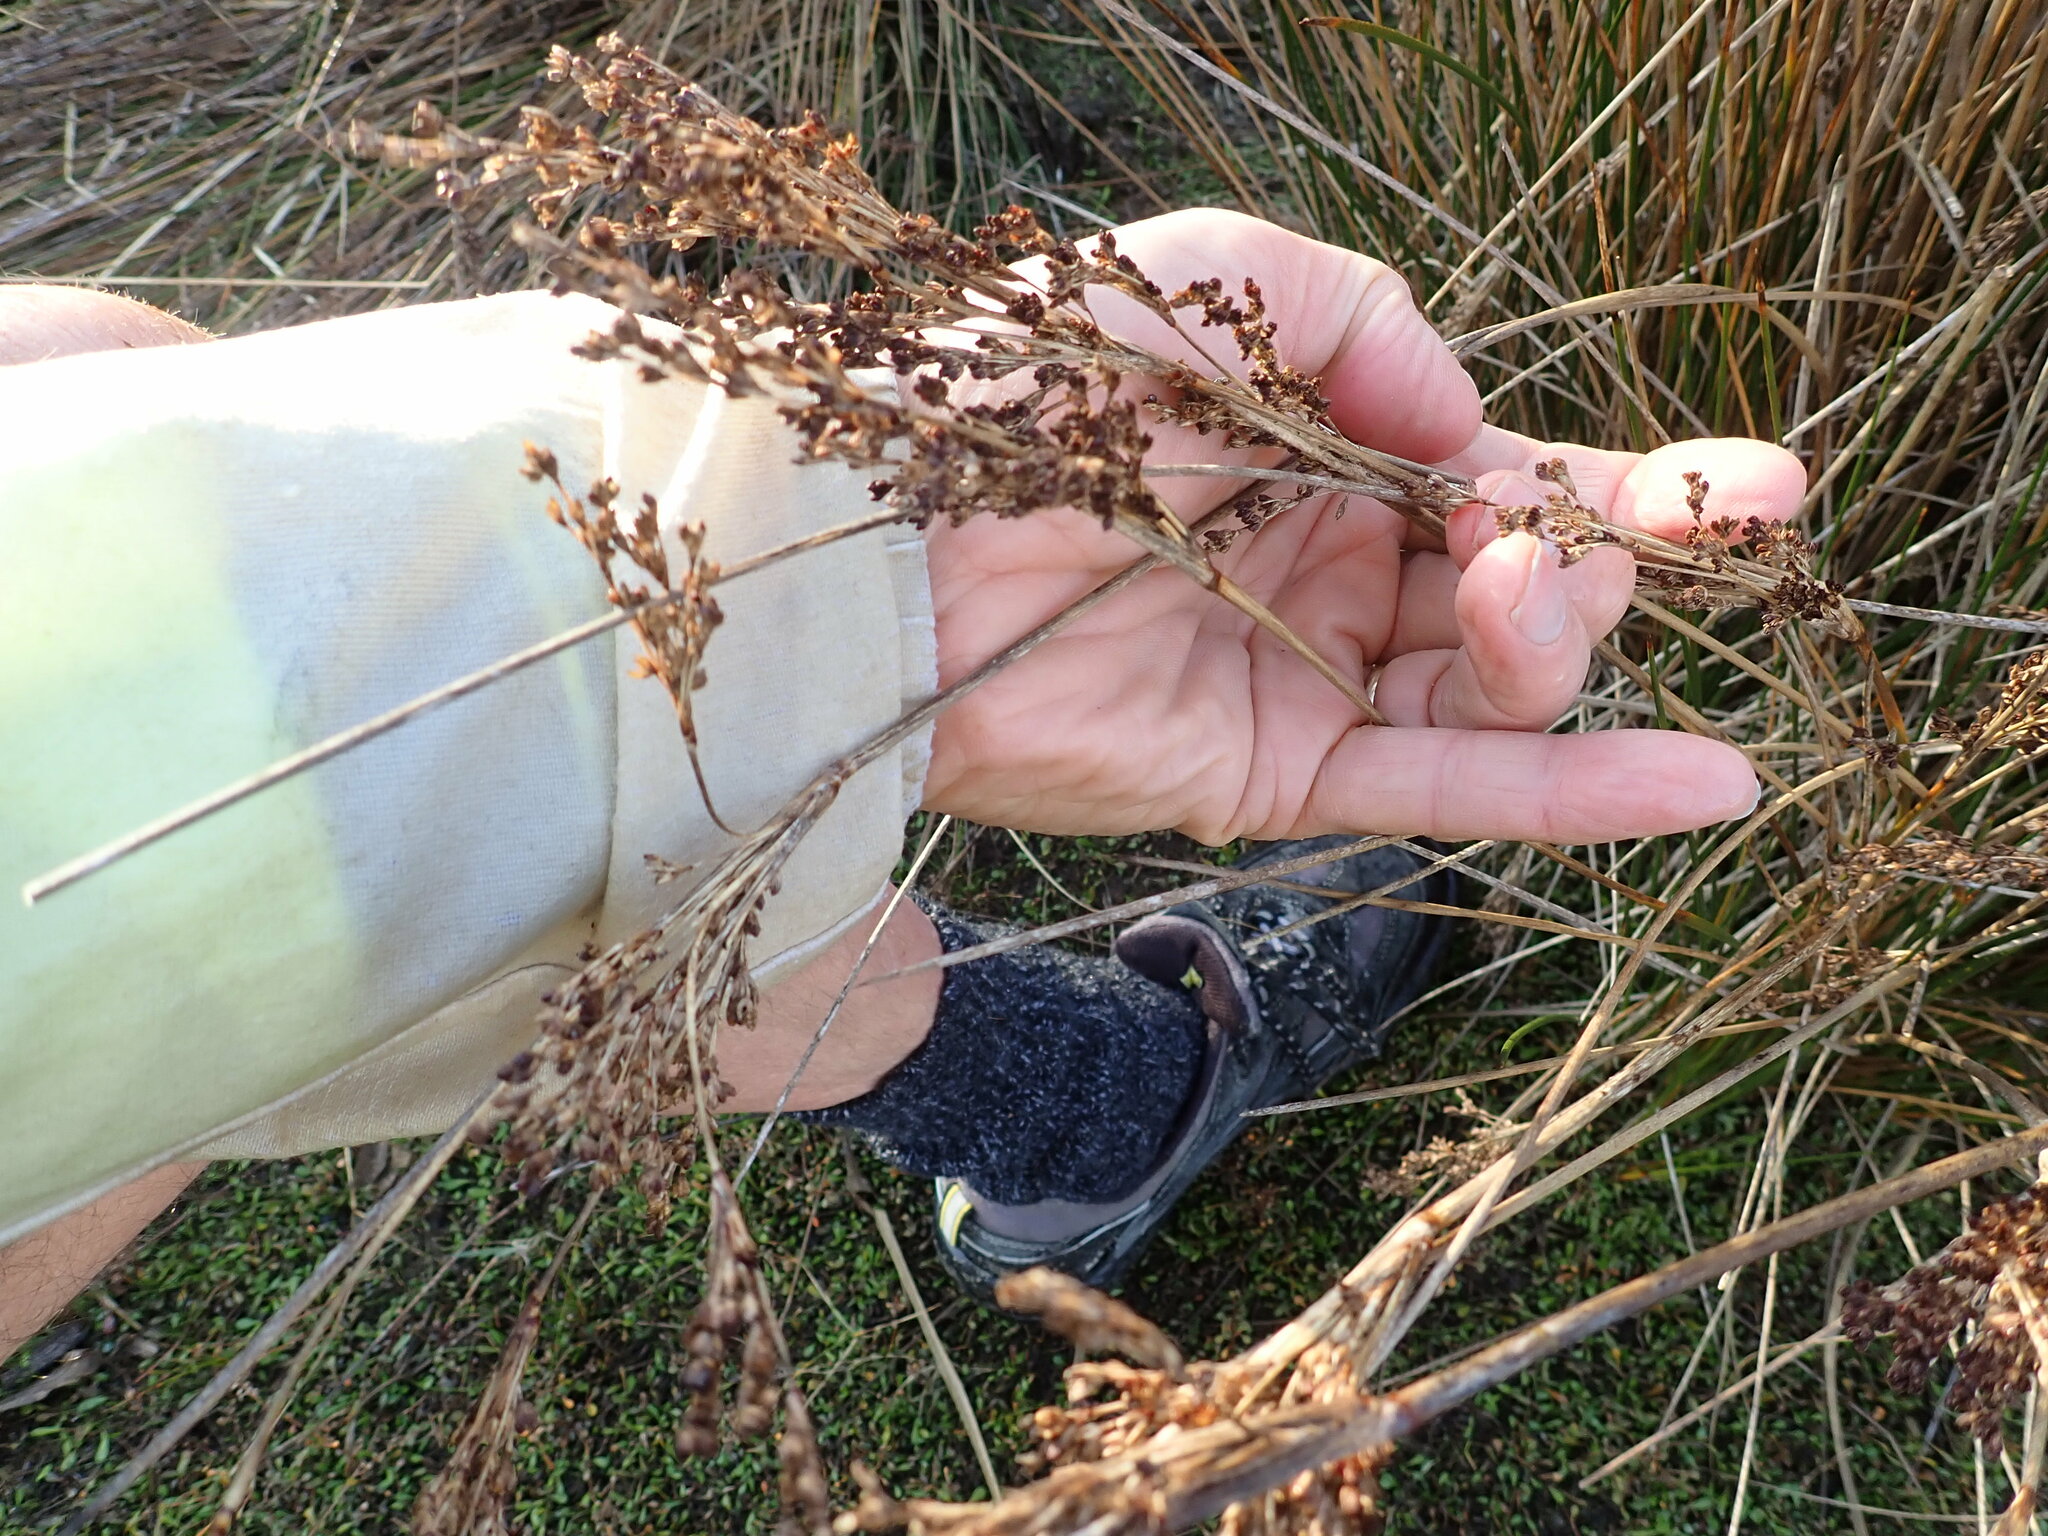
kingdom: Plantae
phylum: Tracheophyta
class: Liliopsida
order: Poales
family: Juncaceae
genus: Juncus
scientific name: Juncus kraussii
